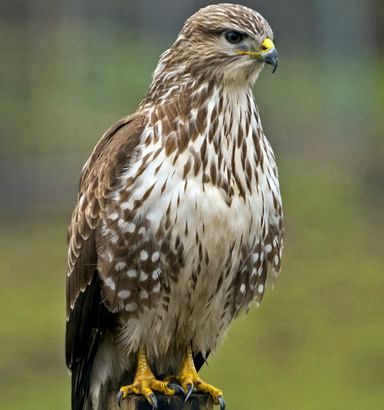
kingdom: Animalia
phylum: Chordata
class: Aves
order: Accipitriformes
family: Accipitridae
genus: Buteo
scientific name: Buteo buteo
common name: Common buzzard
